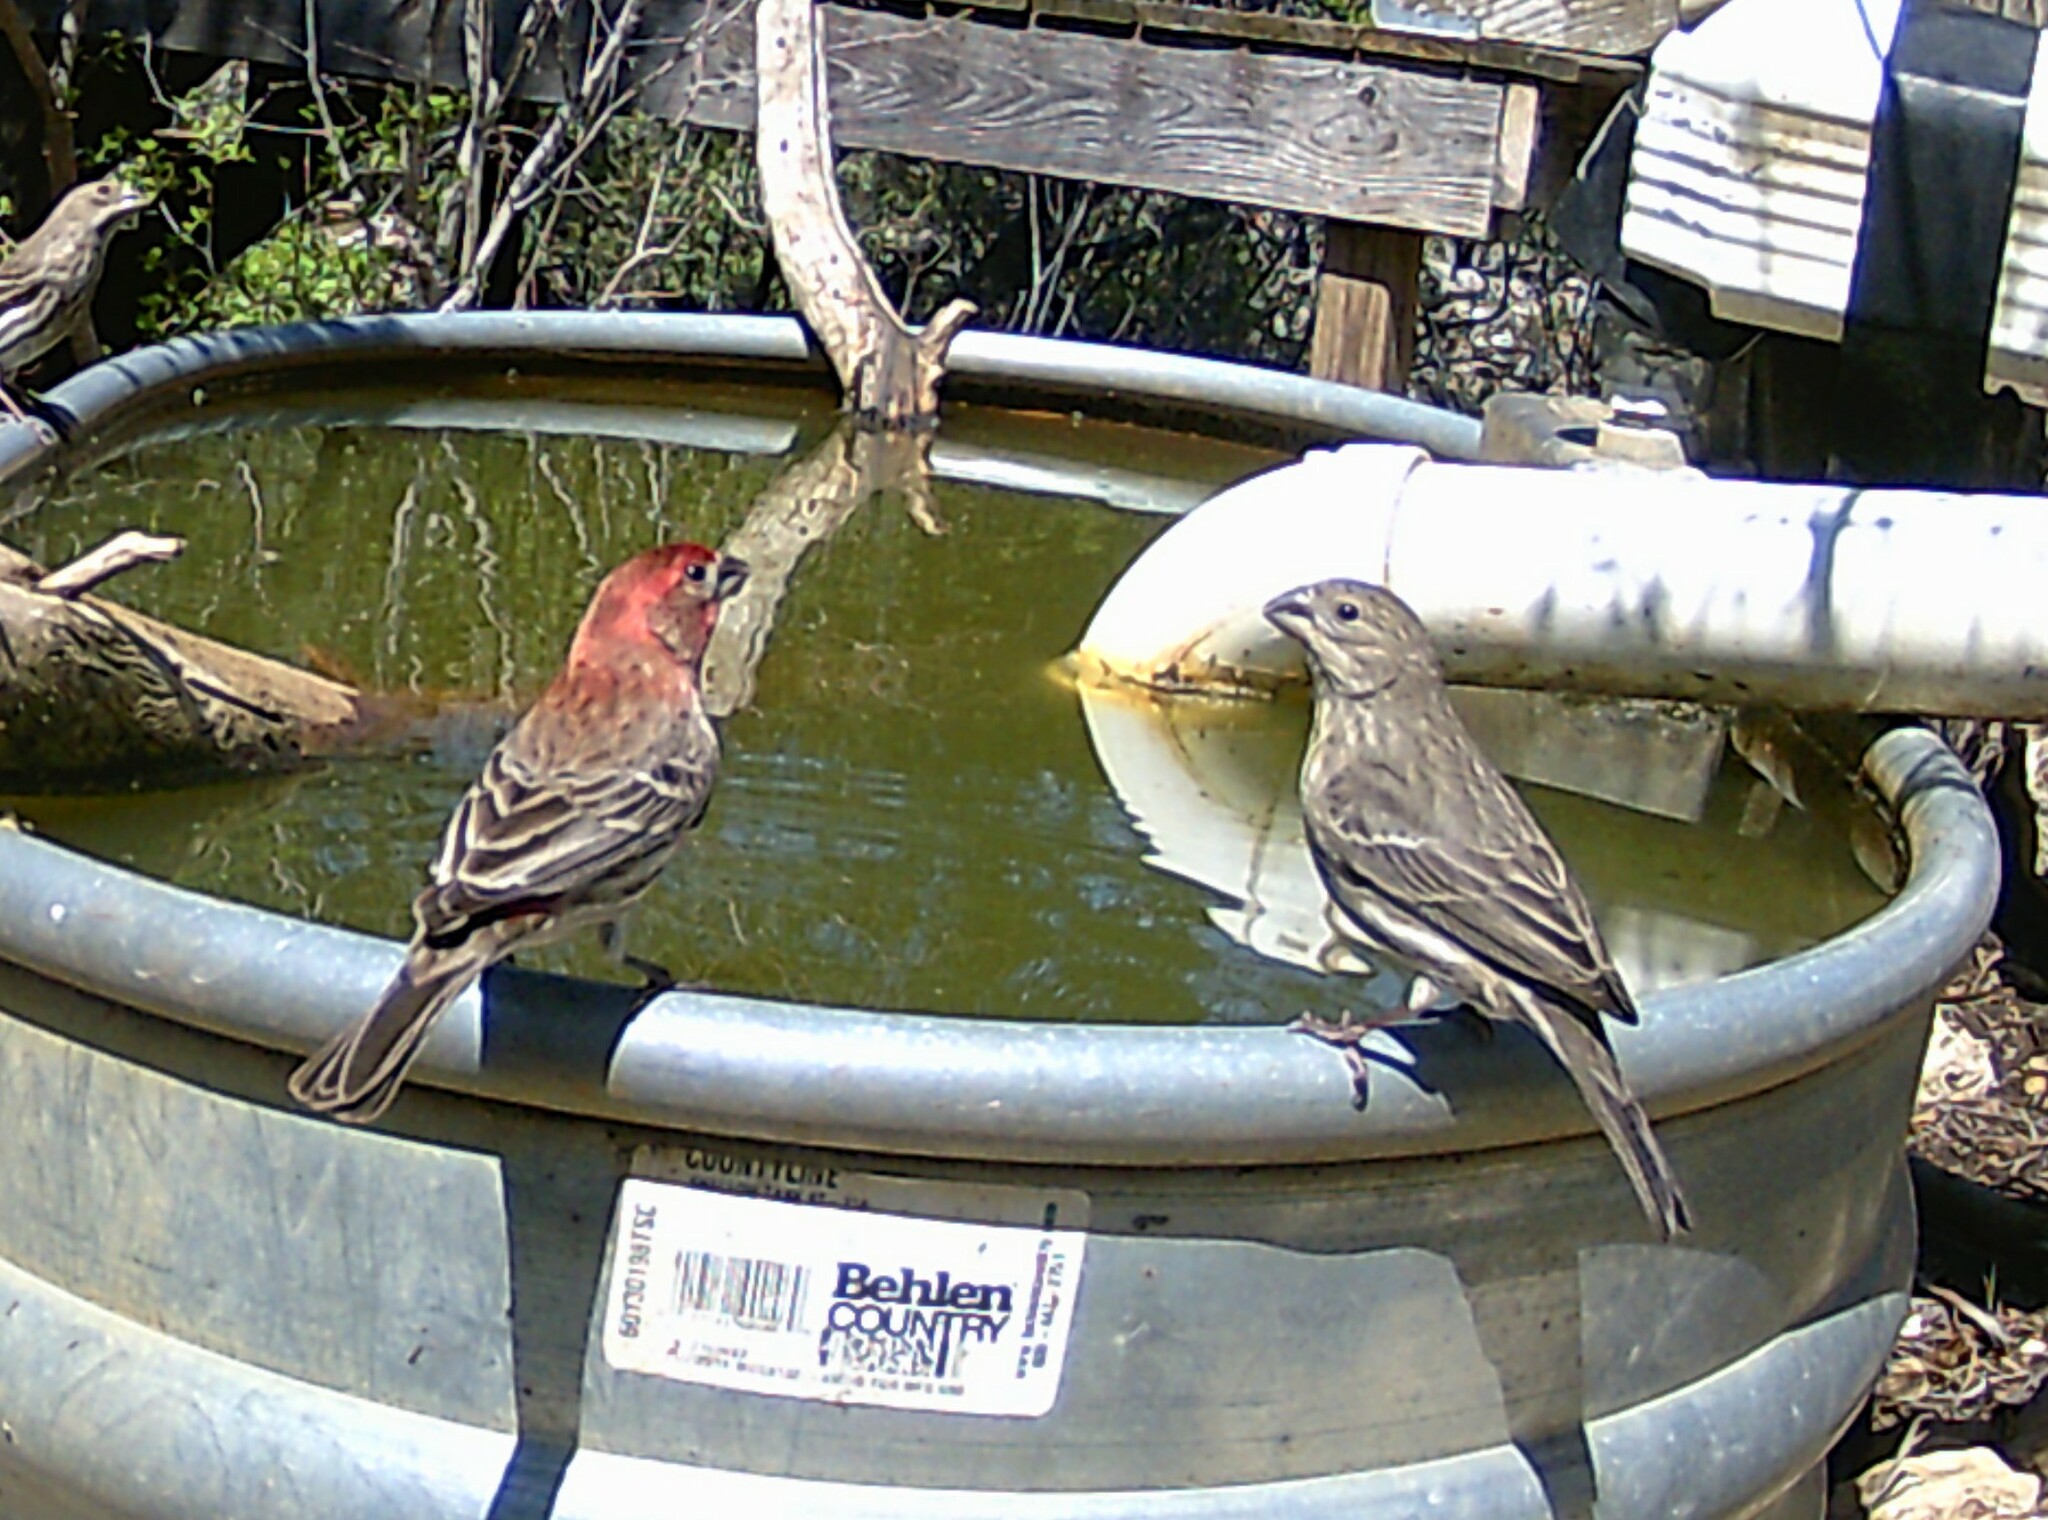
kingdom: Animalia
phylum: Chordata
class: Aves
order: Passeriformes
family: Fringillidae
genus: Haemorhous
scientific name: Haemorhous mexicanus
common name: House finch
